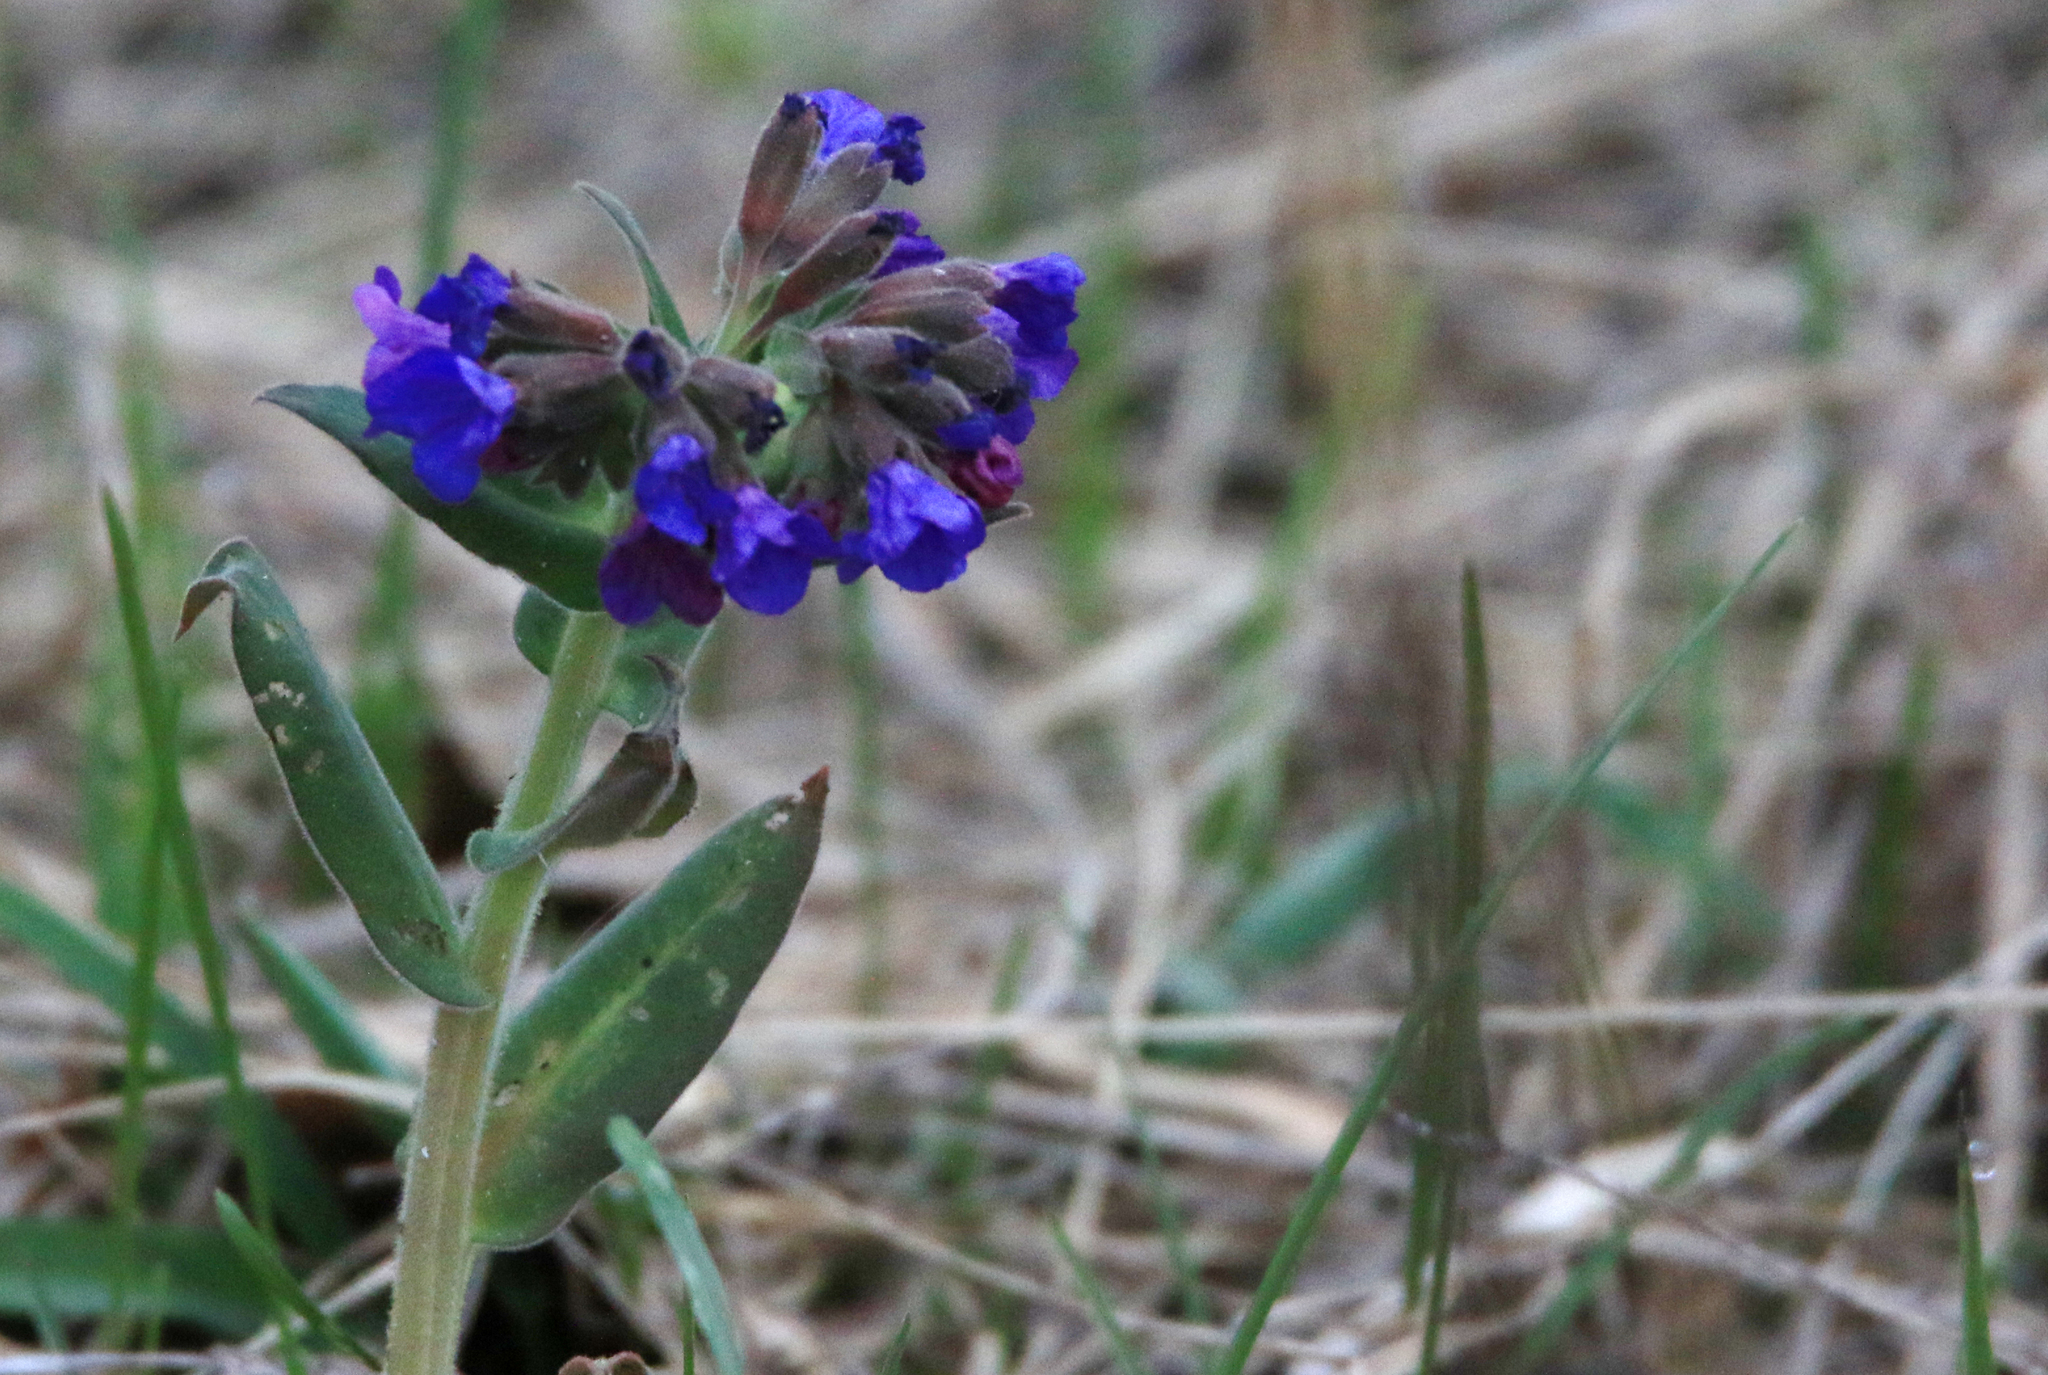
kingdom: Plantae
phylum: Tracheophyta
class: Magnoliopsida
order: Boraginales
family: Boraginaceae
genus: Pulmonaria
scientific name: Pulmonaria mollis
